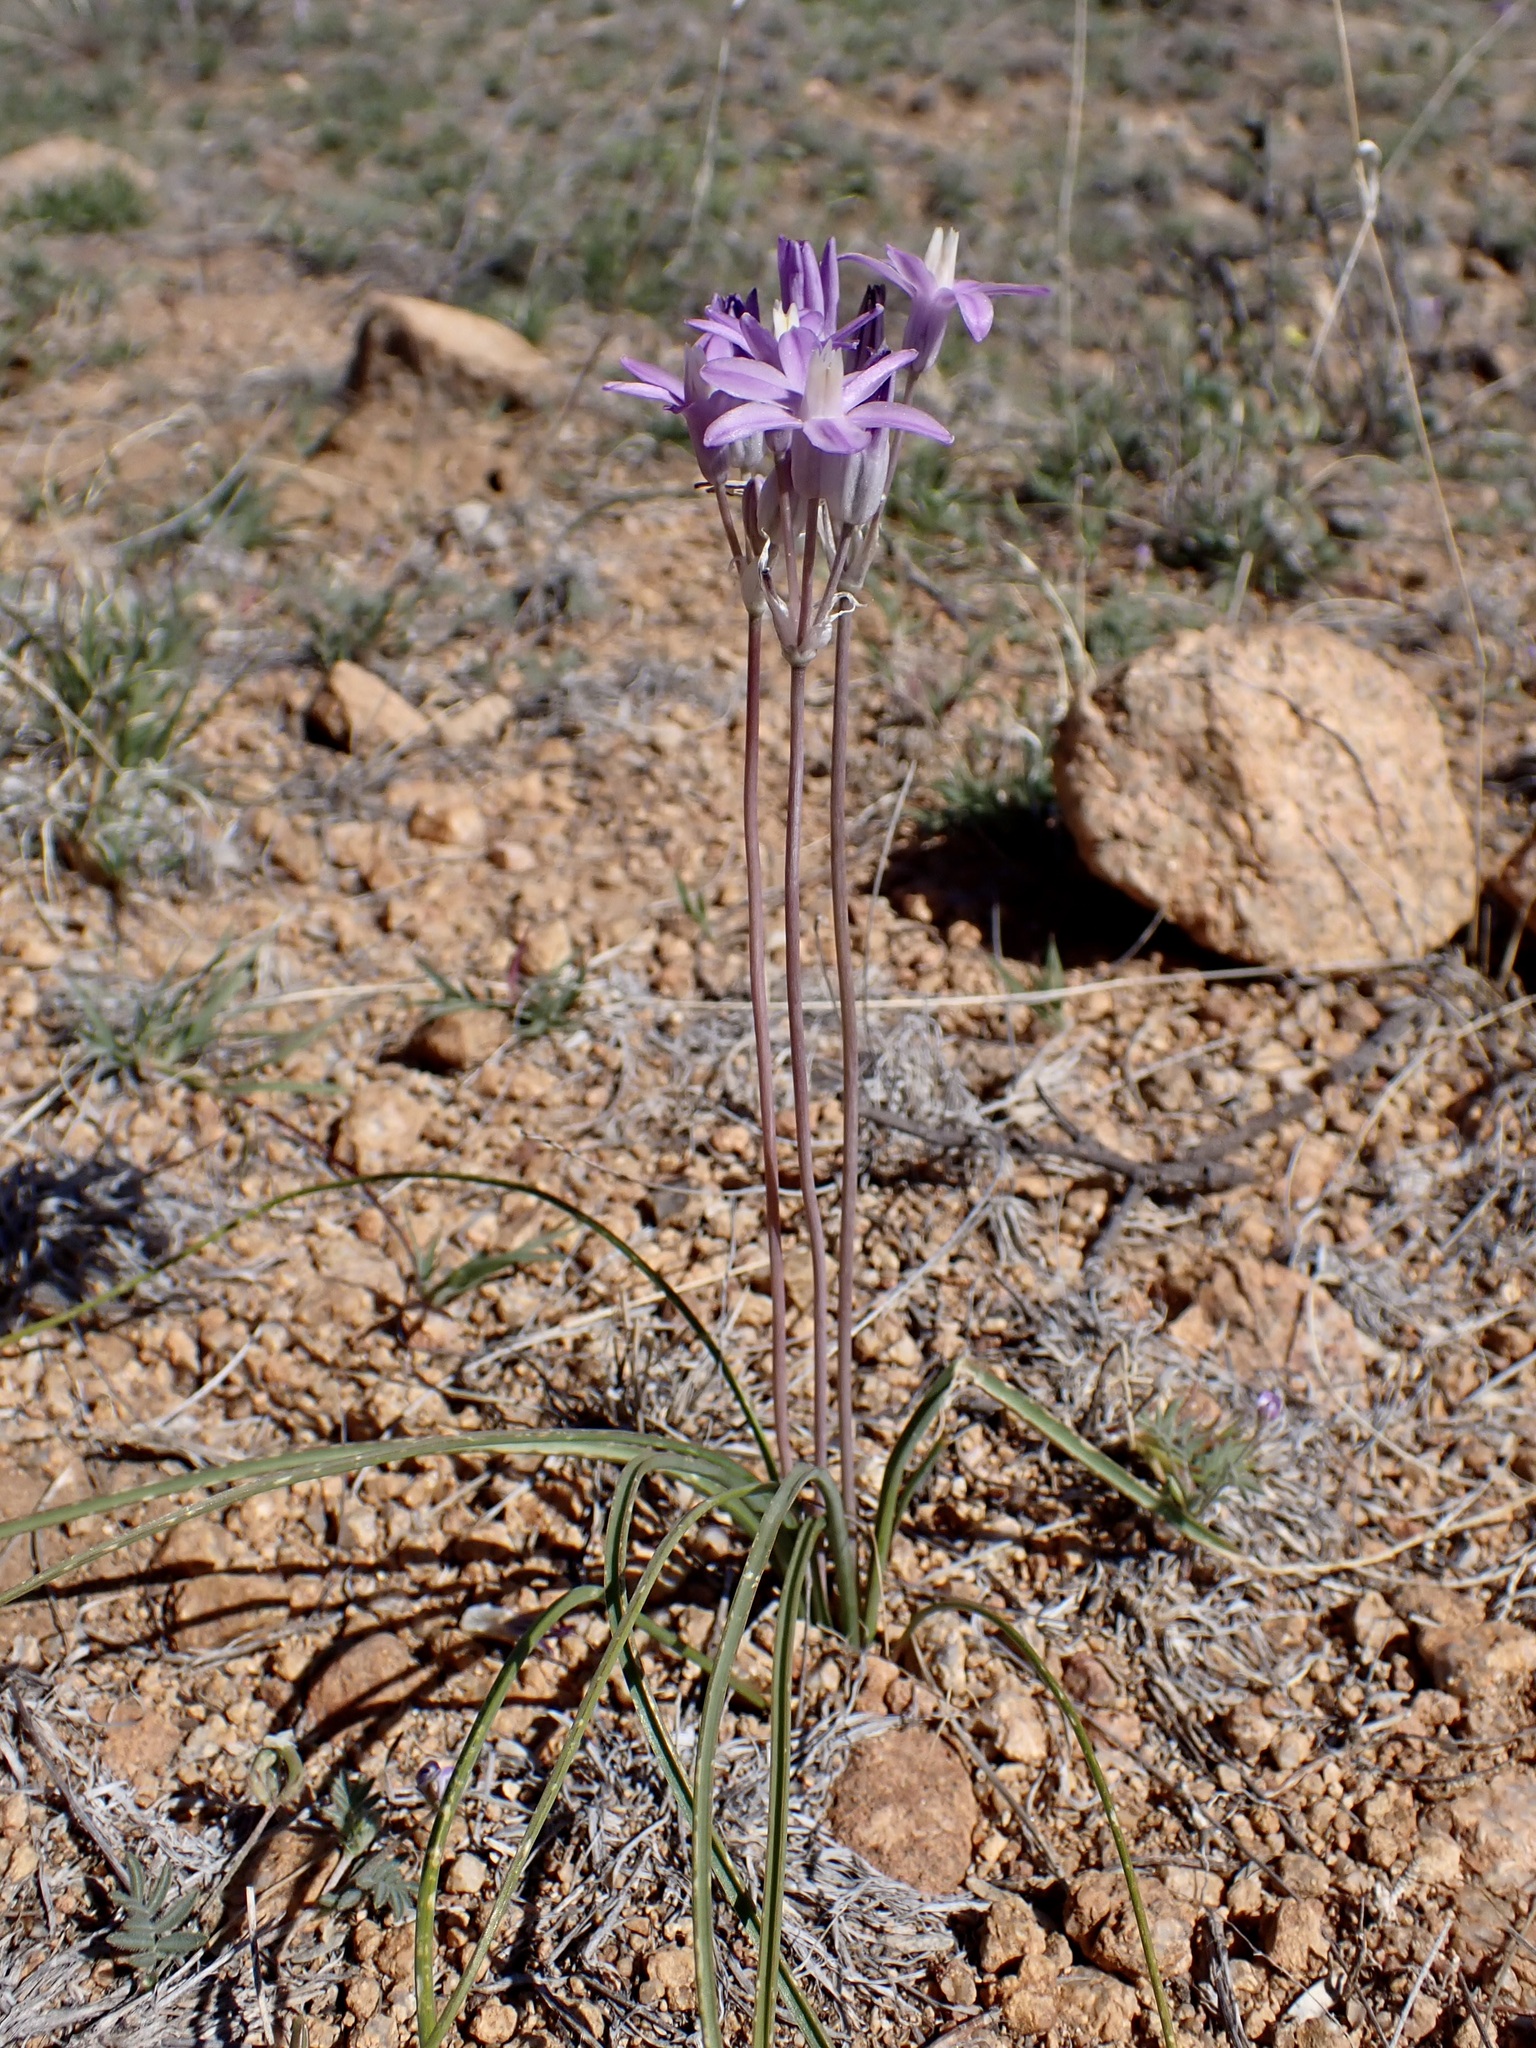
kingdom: Plantae
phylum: Tracheophyta
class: Liliopsida
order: Asparagales
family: Asparagaceae
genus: Dipterostemon
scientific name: Dipterostemon capitatus
